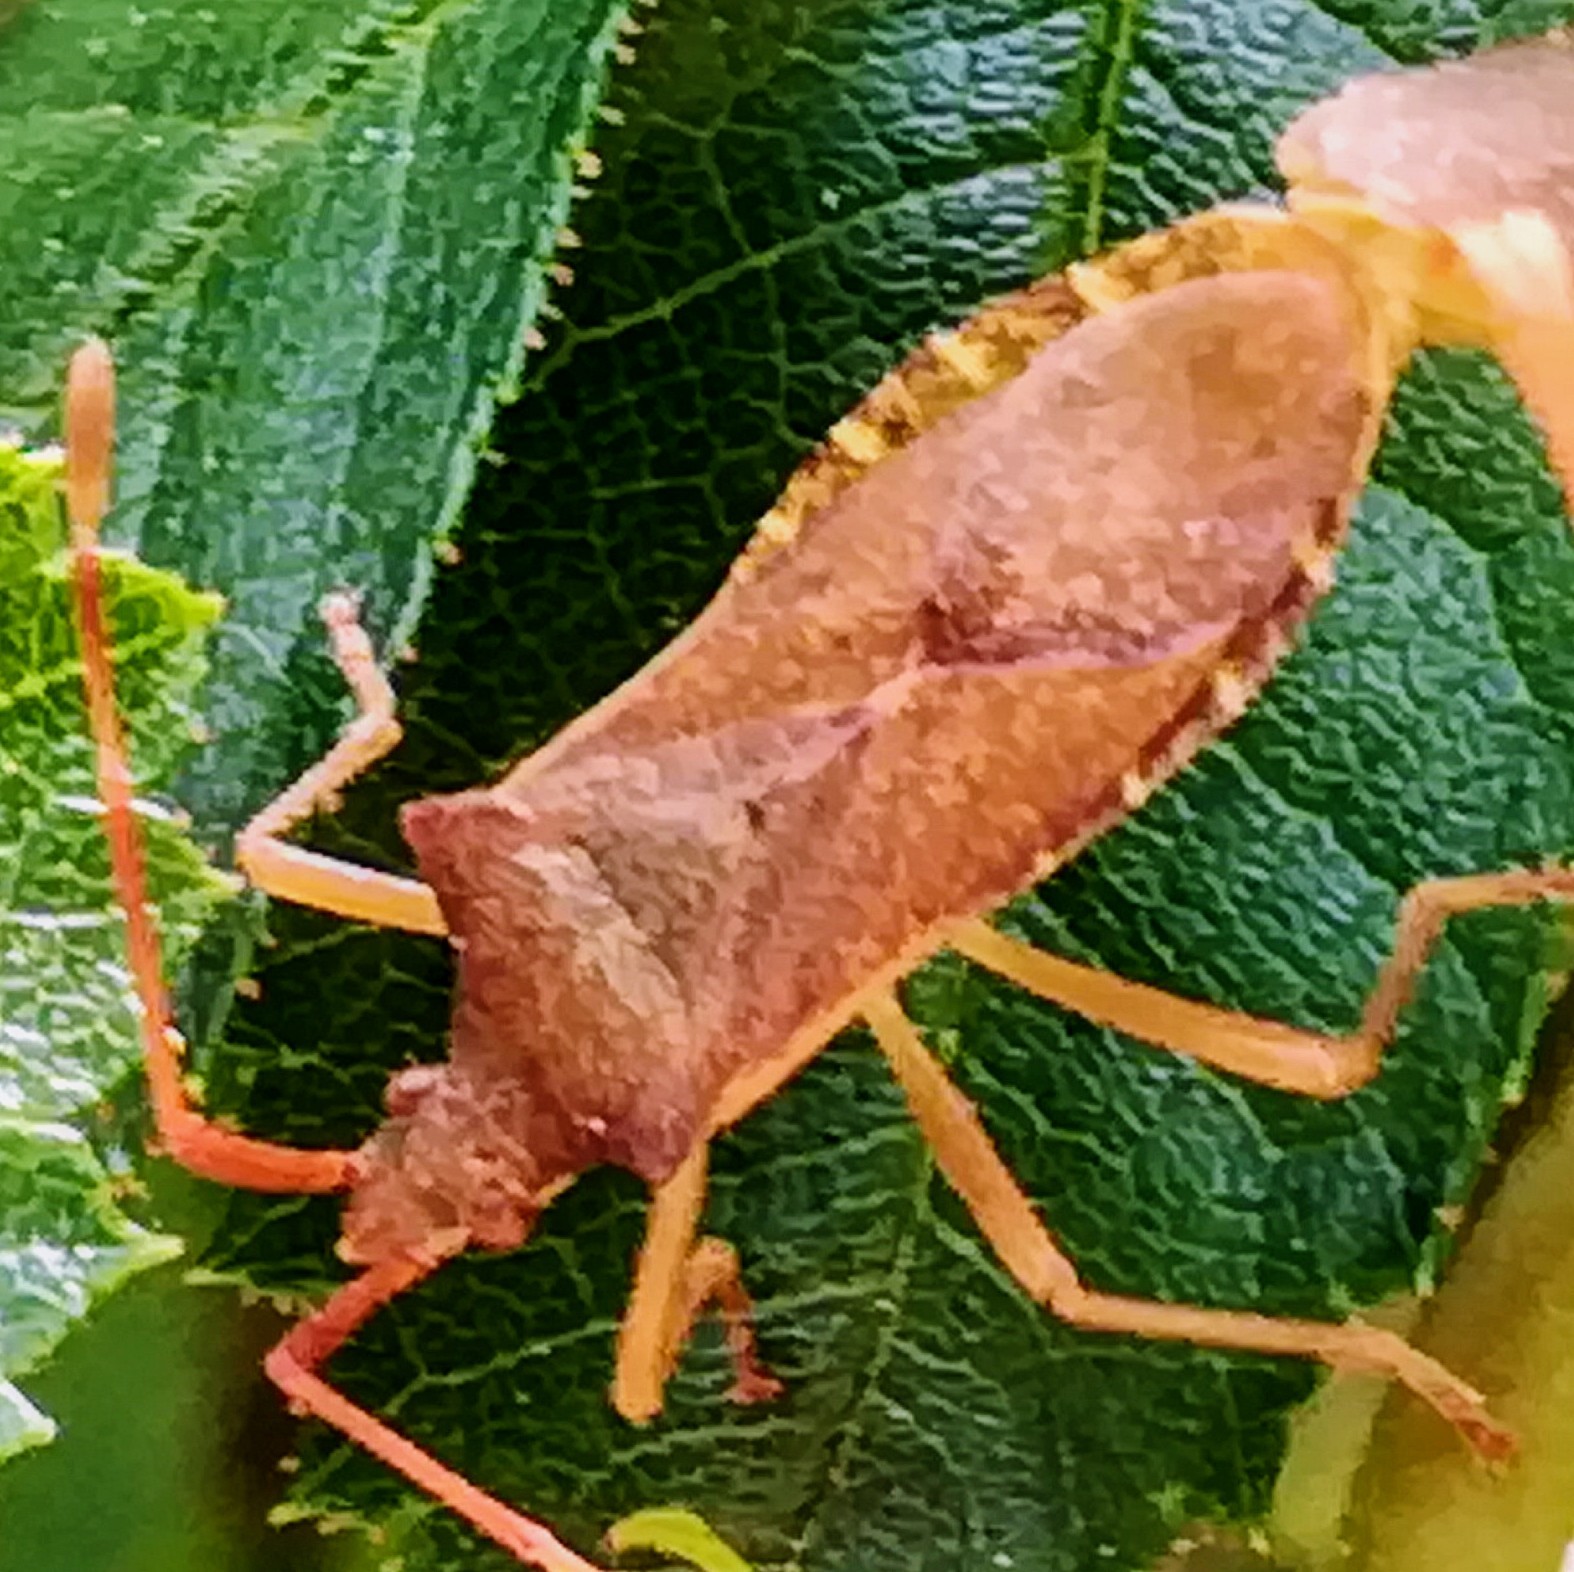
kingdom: Animalia
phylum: Arthropoda
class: Insecta
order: Hemiptera
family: Coreidae
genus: Gonocerus
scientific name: Gonocerus acuteangulatus
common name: Box bug
